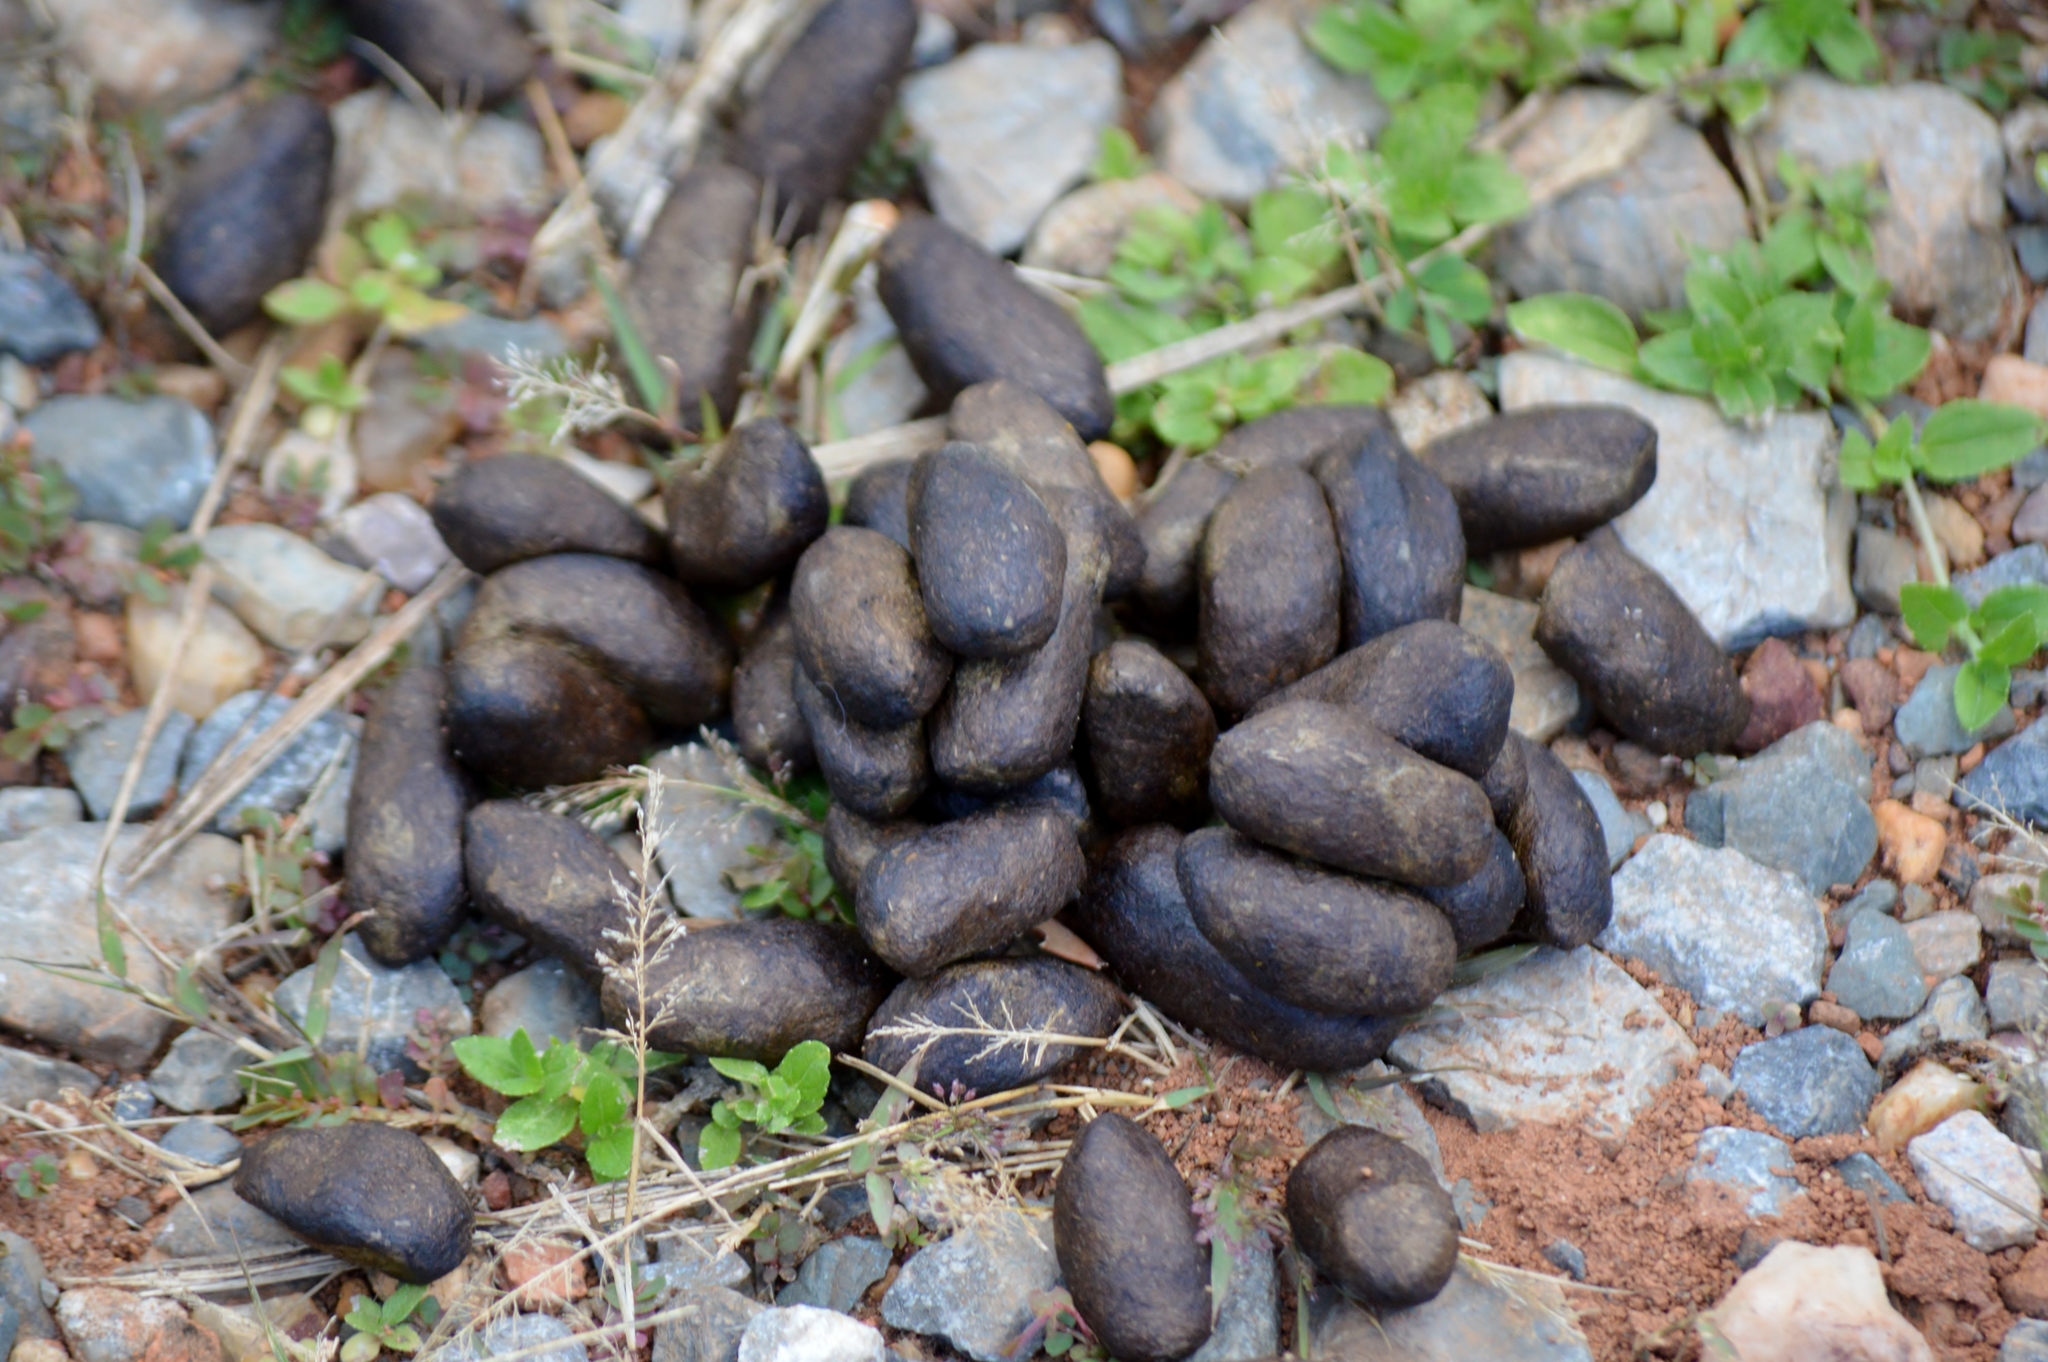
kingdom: Animalia
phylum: Chordata
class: Mammalia
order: Rodentia
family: Caviidae
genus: Hydrochoerus
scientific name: Hydrochoerus hydrochaeris
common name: Capybara
